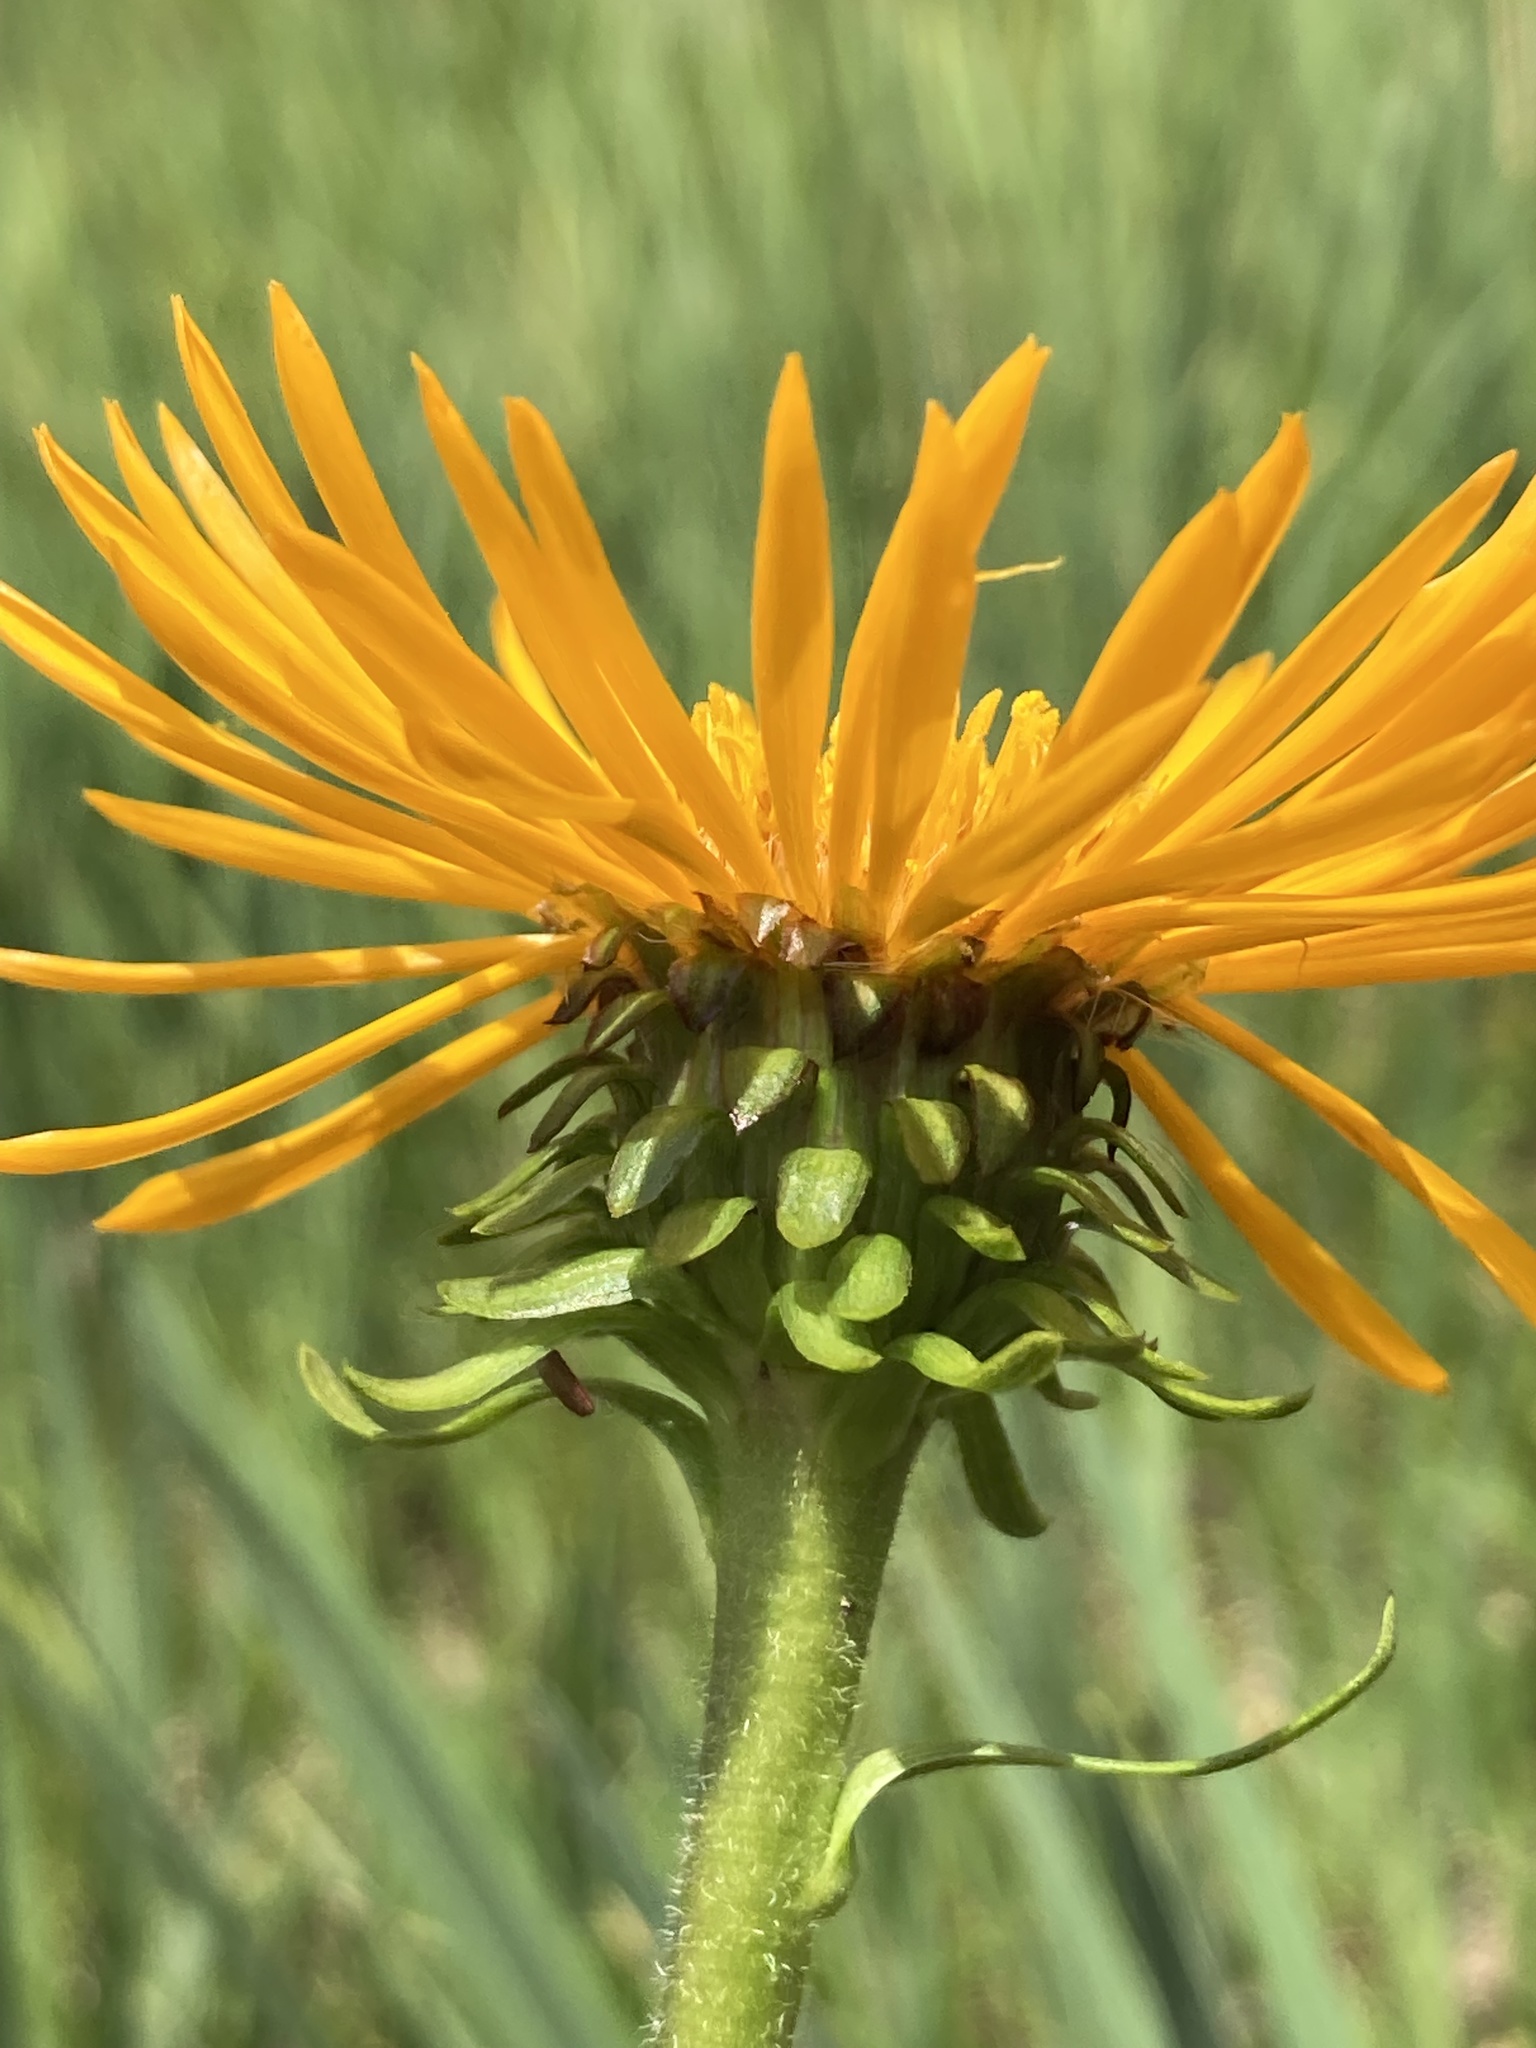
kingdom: Plantae
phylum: Tracheophyta
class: Magnoliopsida
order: Asterales
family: Asteraceae
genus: Pyrrocoma
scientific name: Pyrrocoma crocea
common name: Curly-head goldenweed
